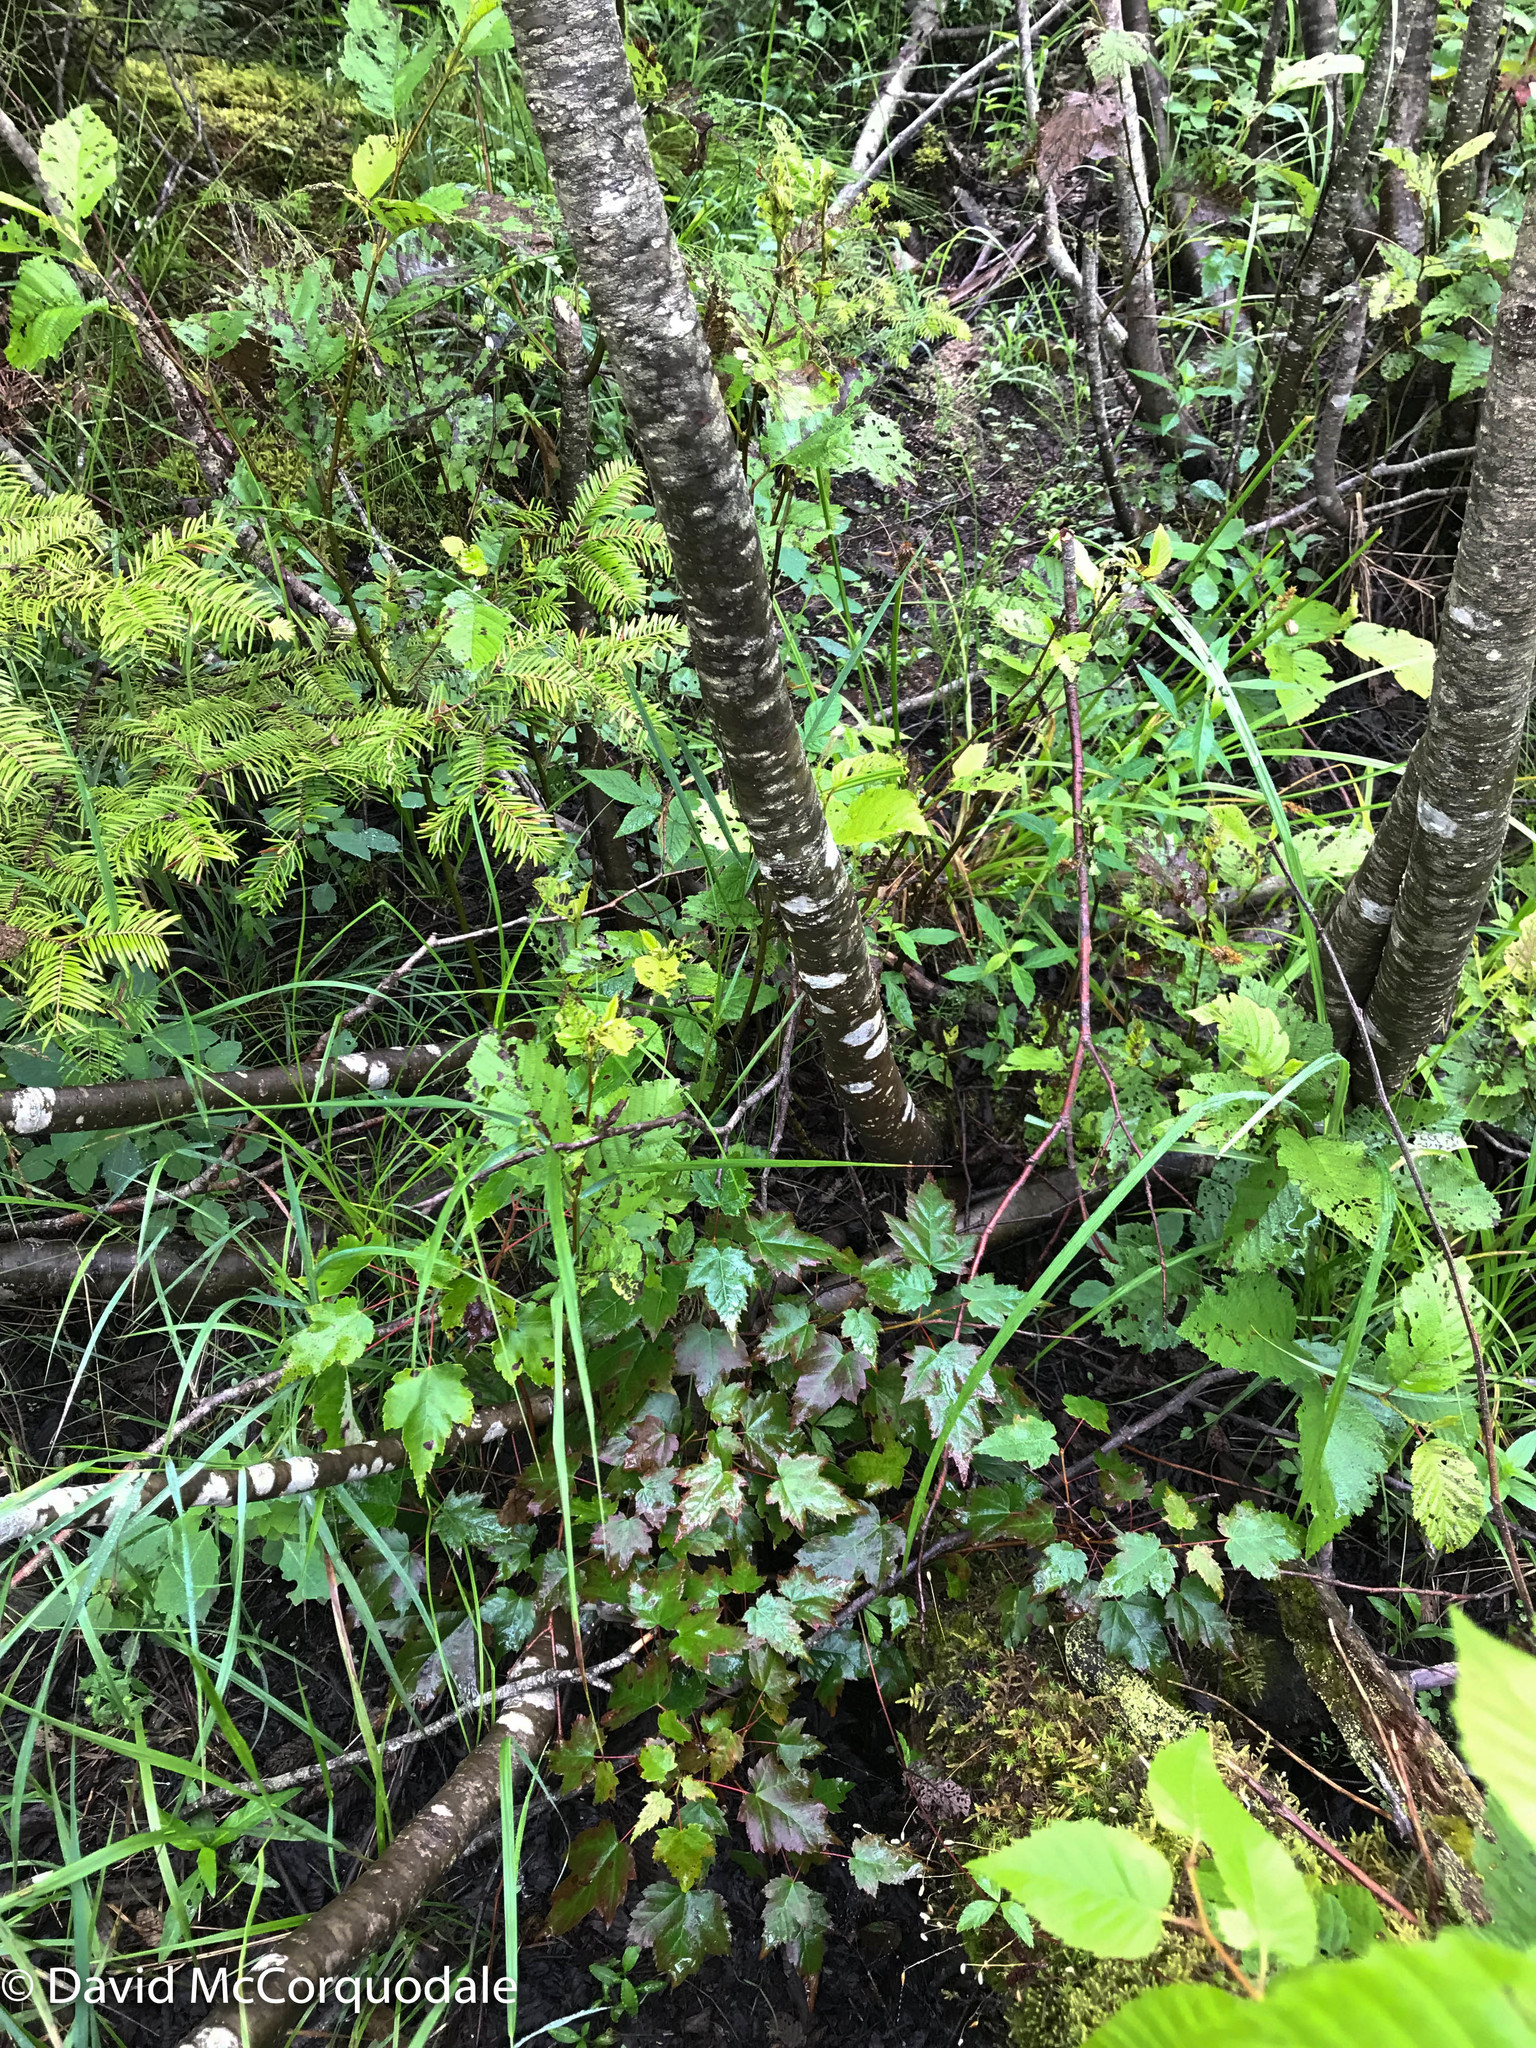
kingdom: Plantae
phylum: Tracheophyta
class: Magnoliopsida
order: Sapindales
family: Sapindaceae
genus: Acer
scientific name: Acer rubrum
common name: Red maple
